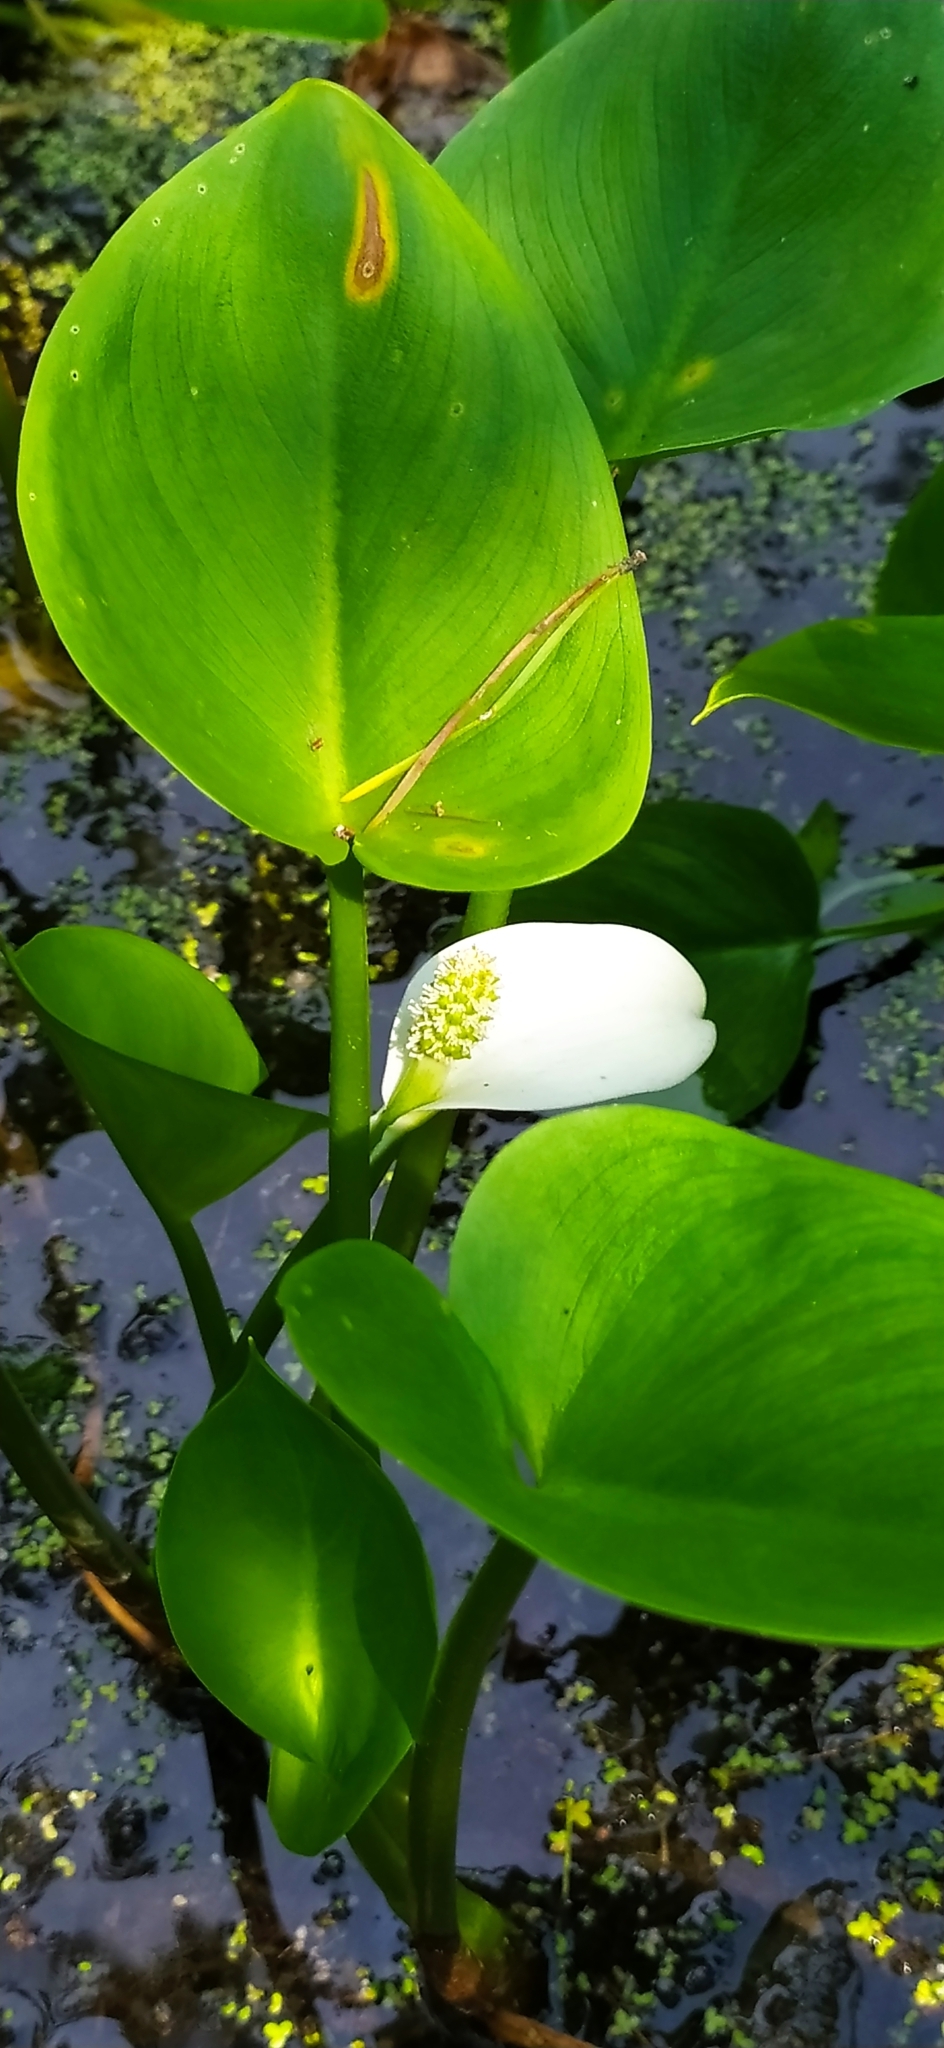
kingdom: Plantae
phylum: Tracheophyta
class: Liliopsida
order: Alismatales
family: Araceae
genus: Calla
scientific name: Calla palustris
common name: Bog arum
